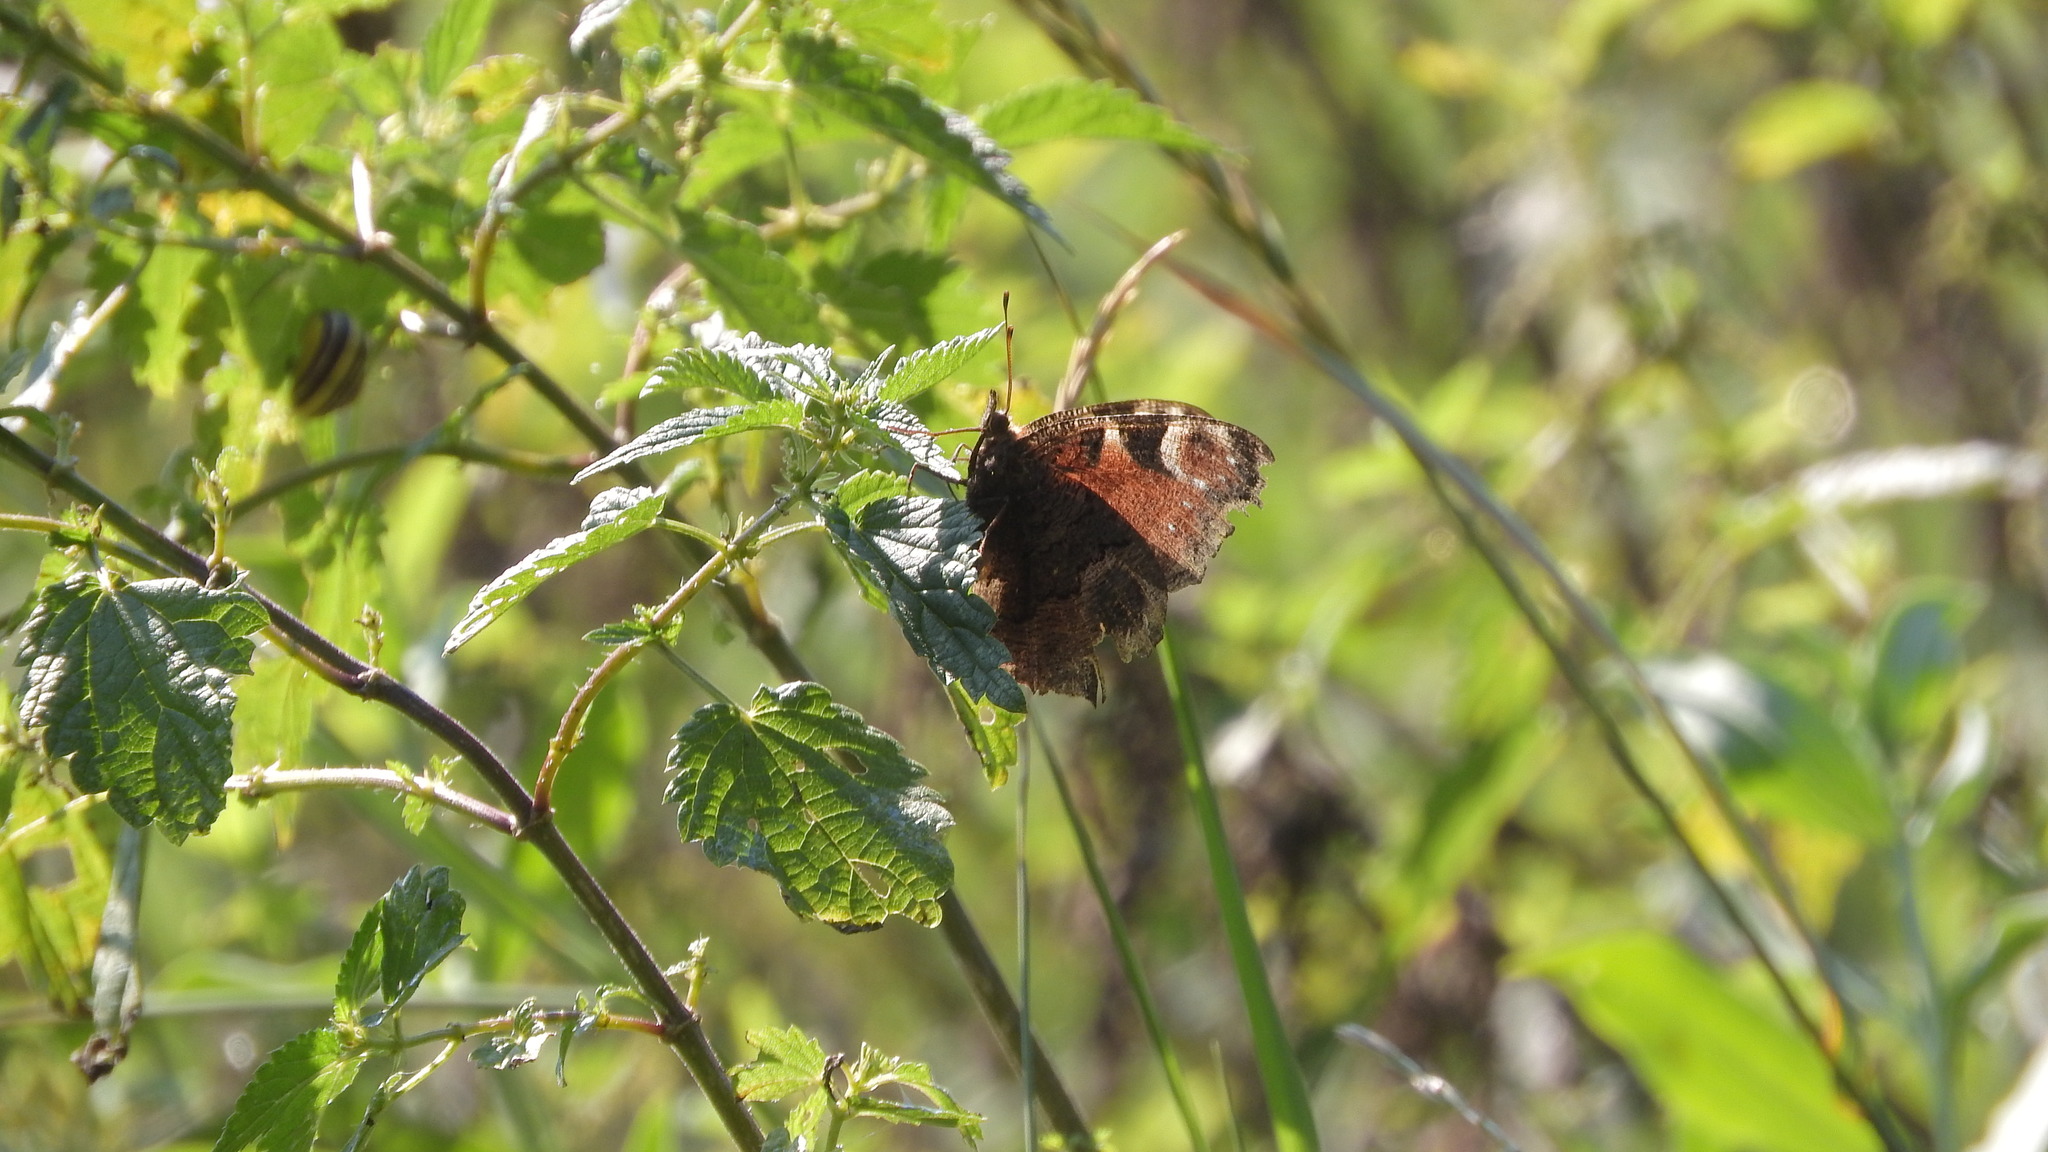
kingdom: Animalia
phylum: Arthropoda
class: Insecta
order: Lepidoptera
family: Nymphalidae
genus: Aglais
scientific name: Aglais io
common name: Peacock
